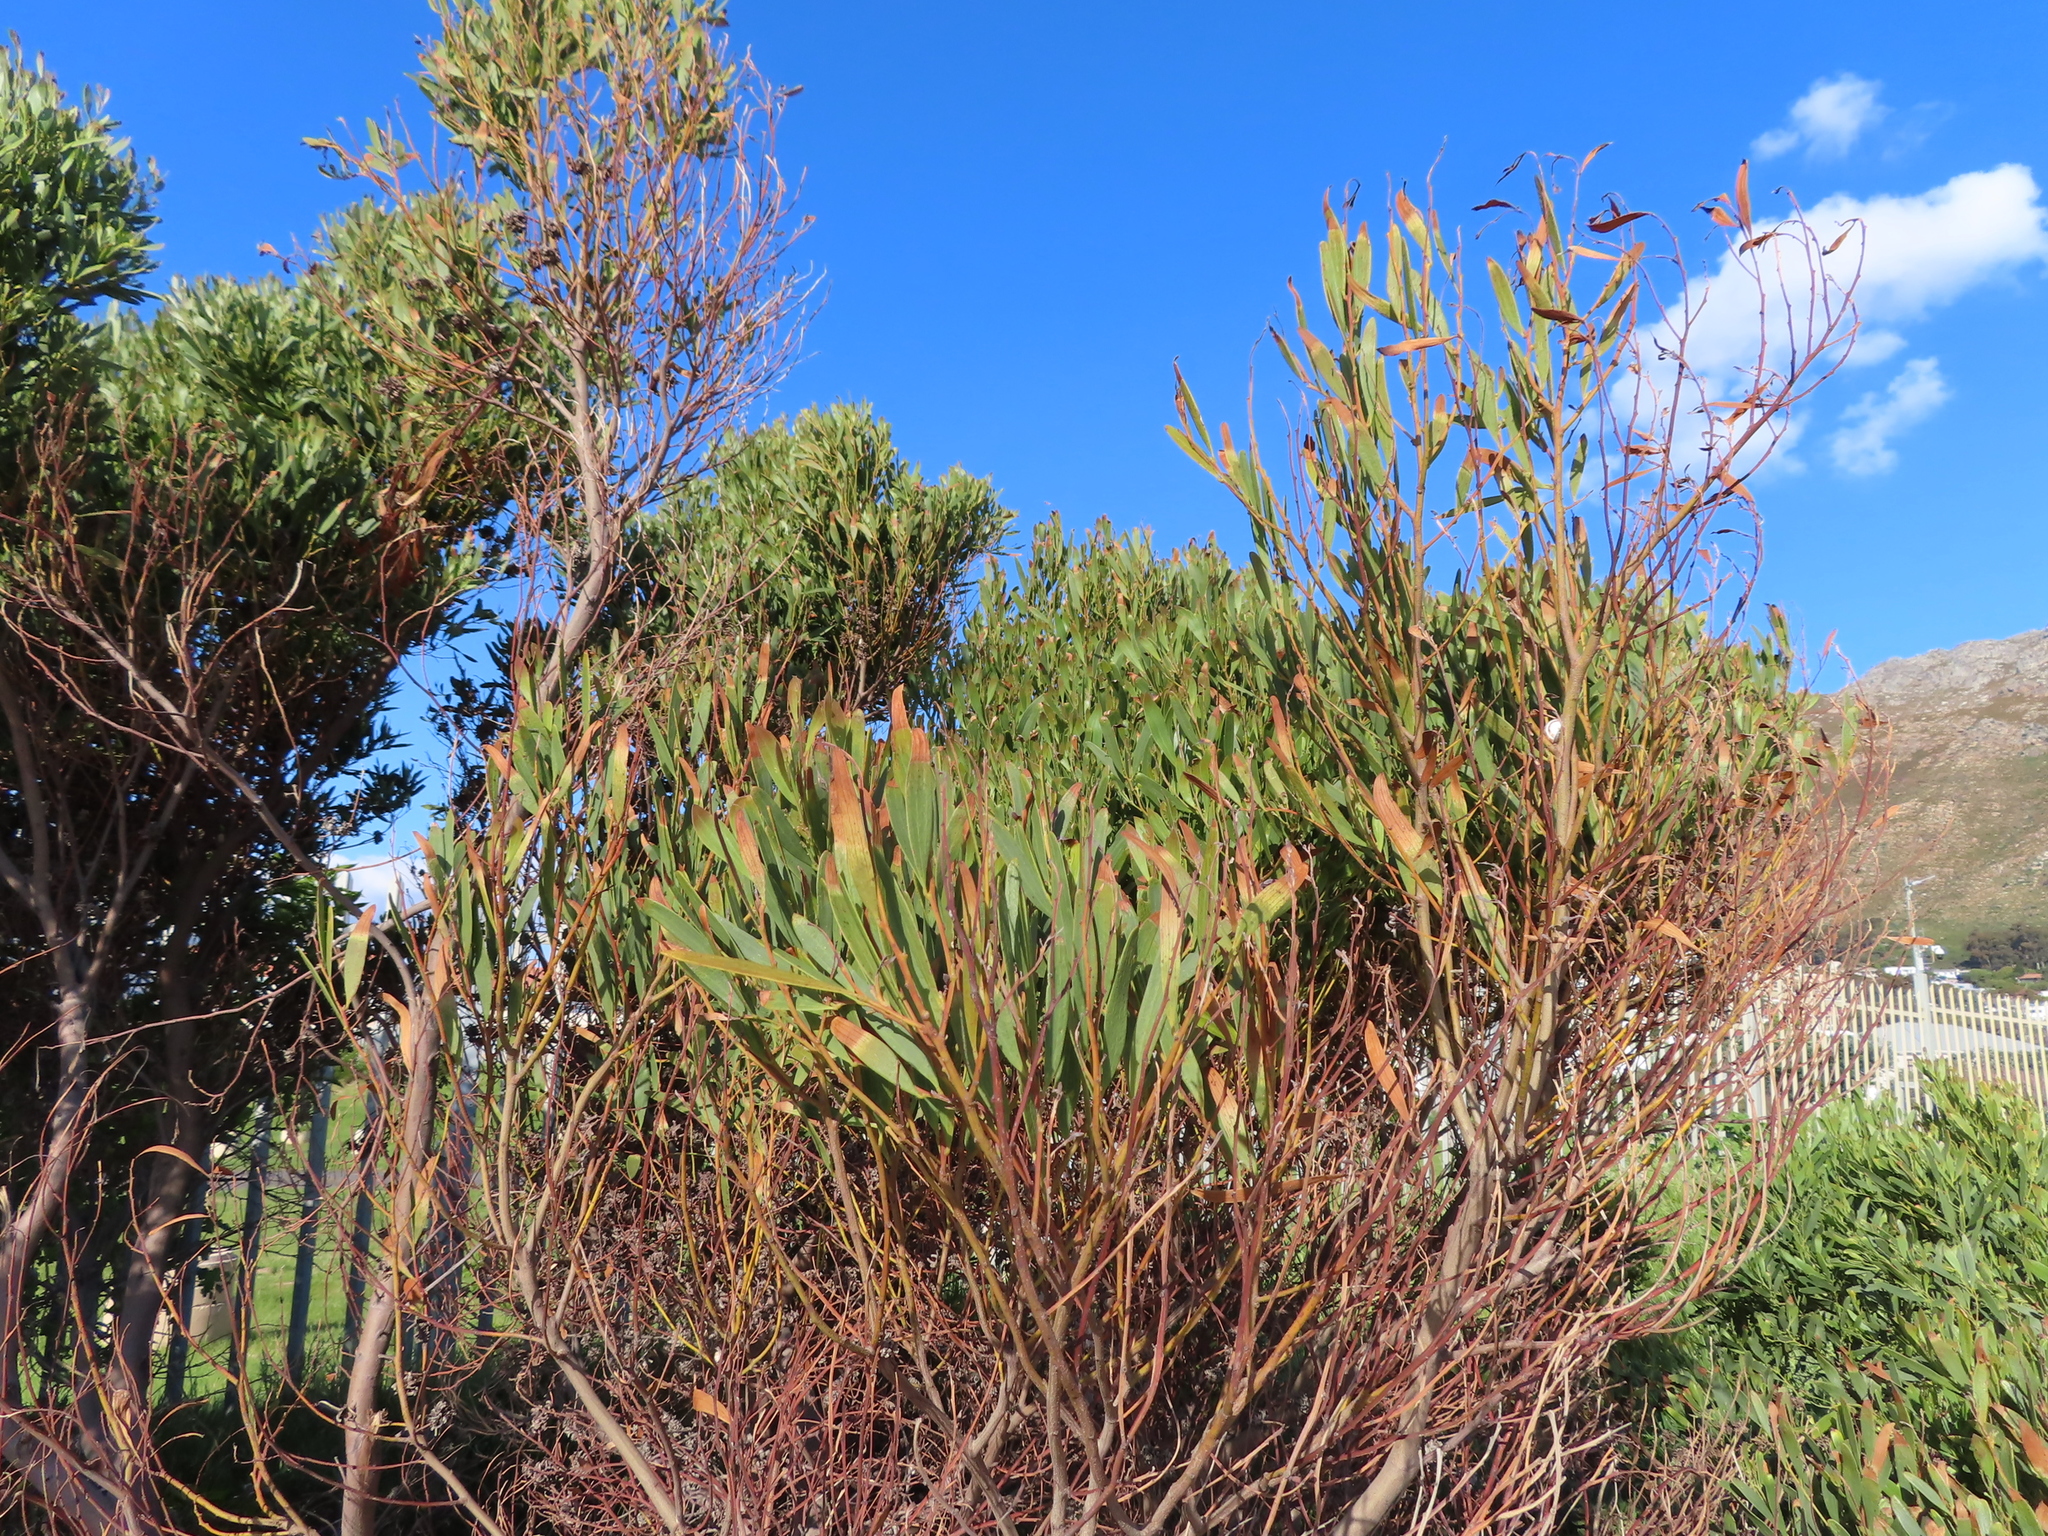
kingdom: Plantae
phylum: Tracheophyta
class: Magnoliopsida
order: Fabales
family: Fabaceae
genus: Acacia
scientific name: Acacia cyclops
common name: Coastal wattle
